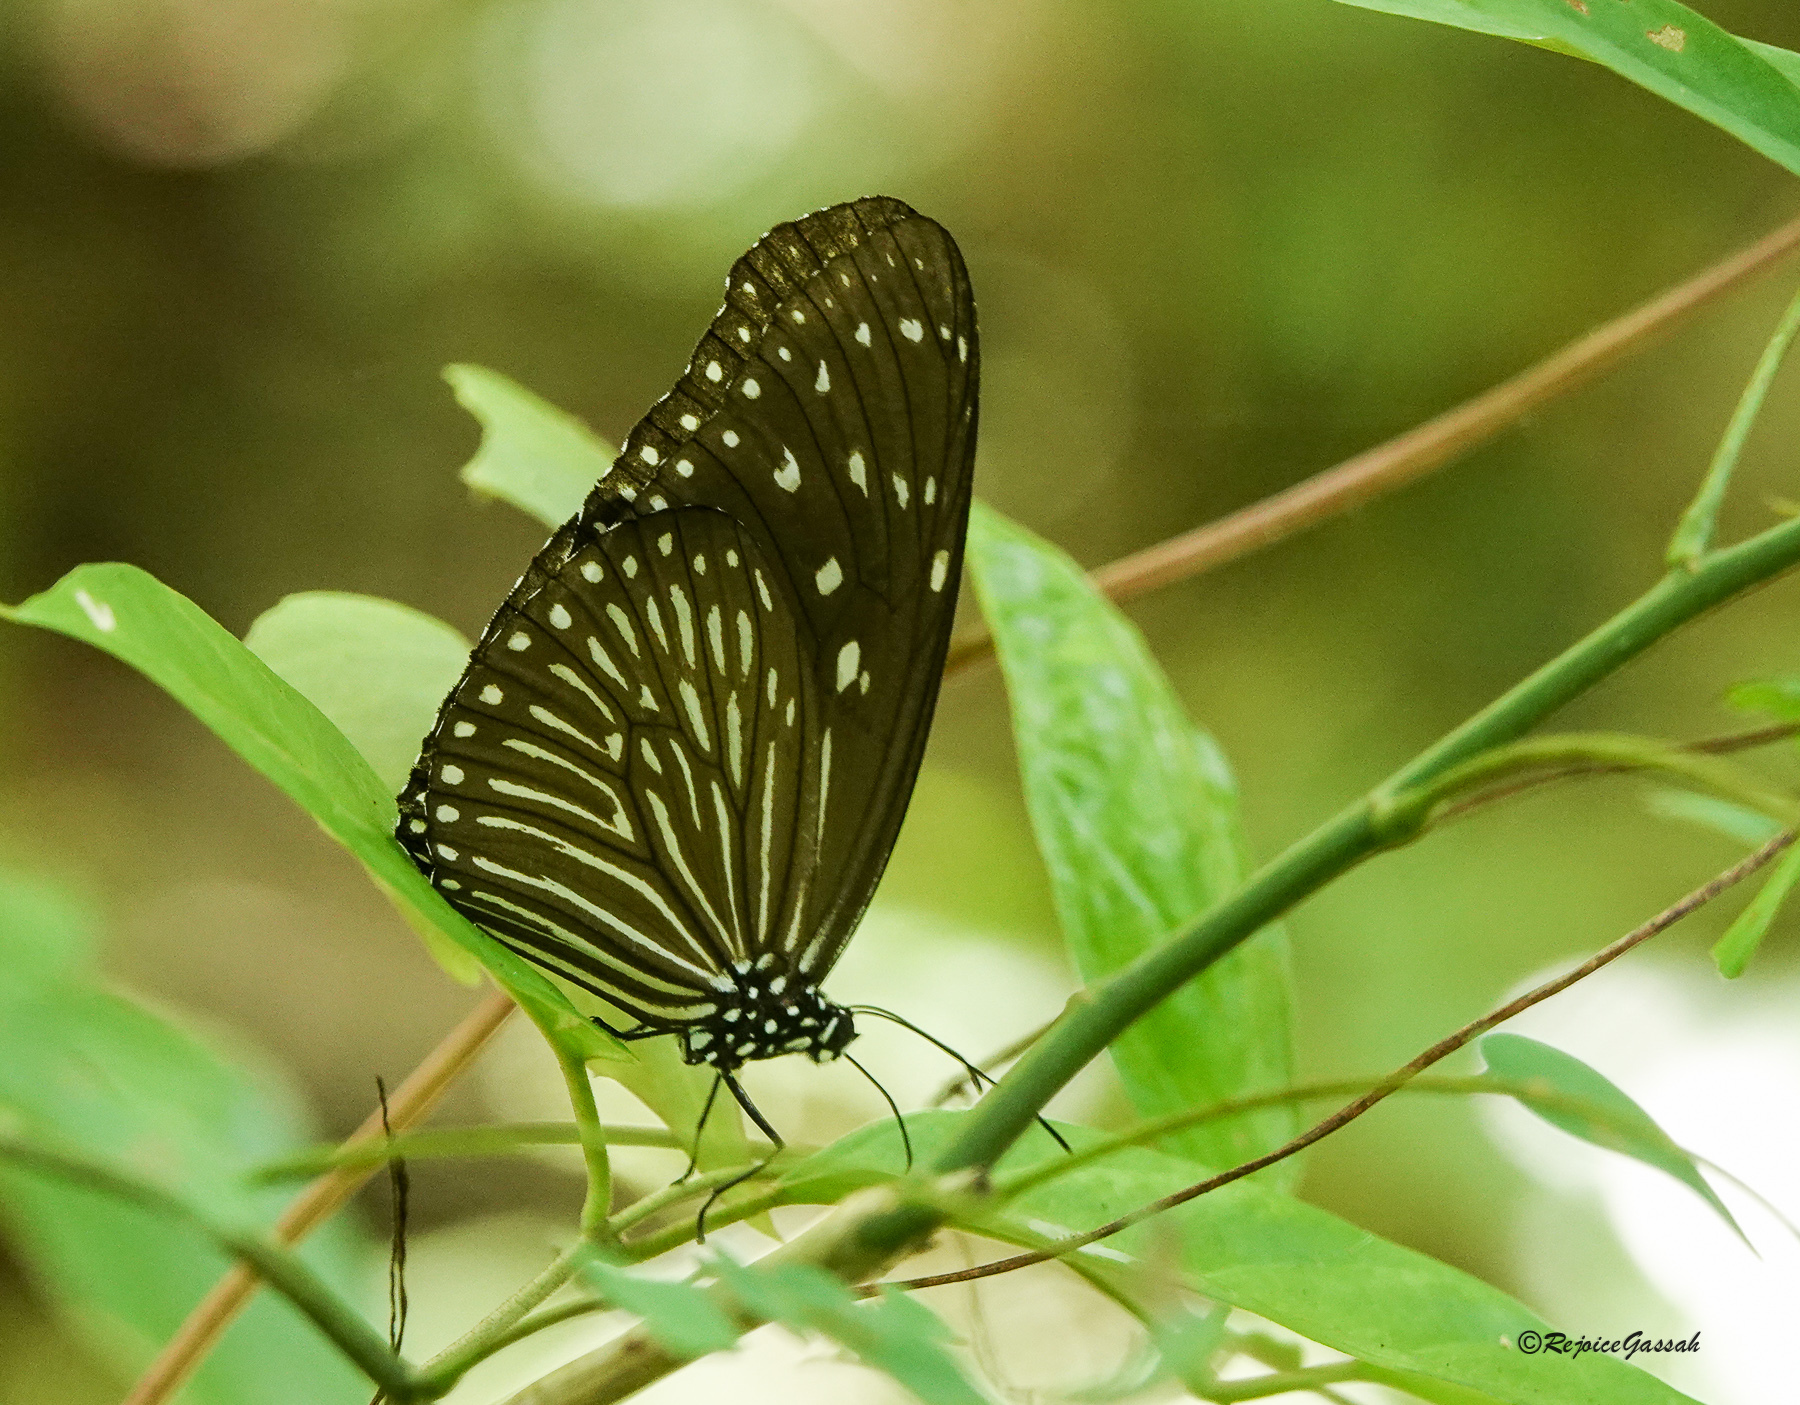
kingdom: Animalia
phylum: Arthropoda
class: Insecta
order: Lepidoptera
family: Nymphalidae
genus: Euploea
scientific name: Euploea mulciber
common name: Striped blue crow butterfly
